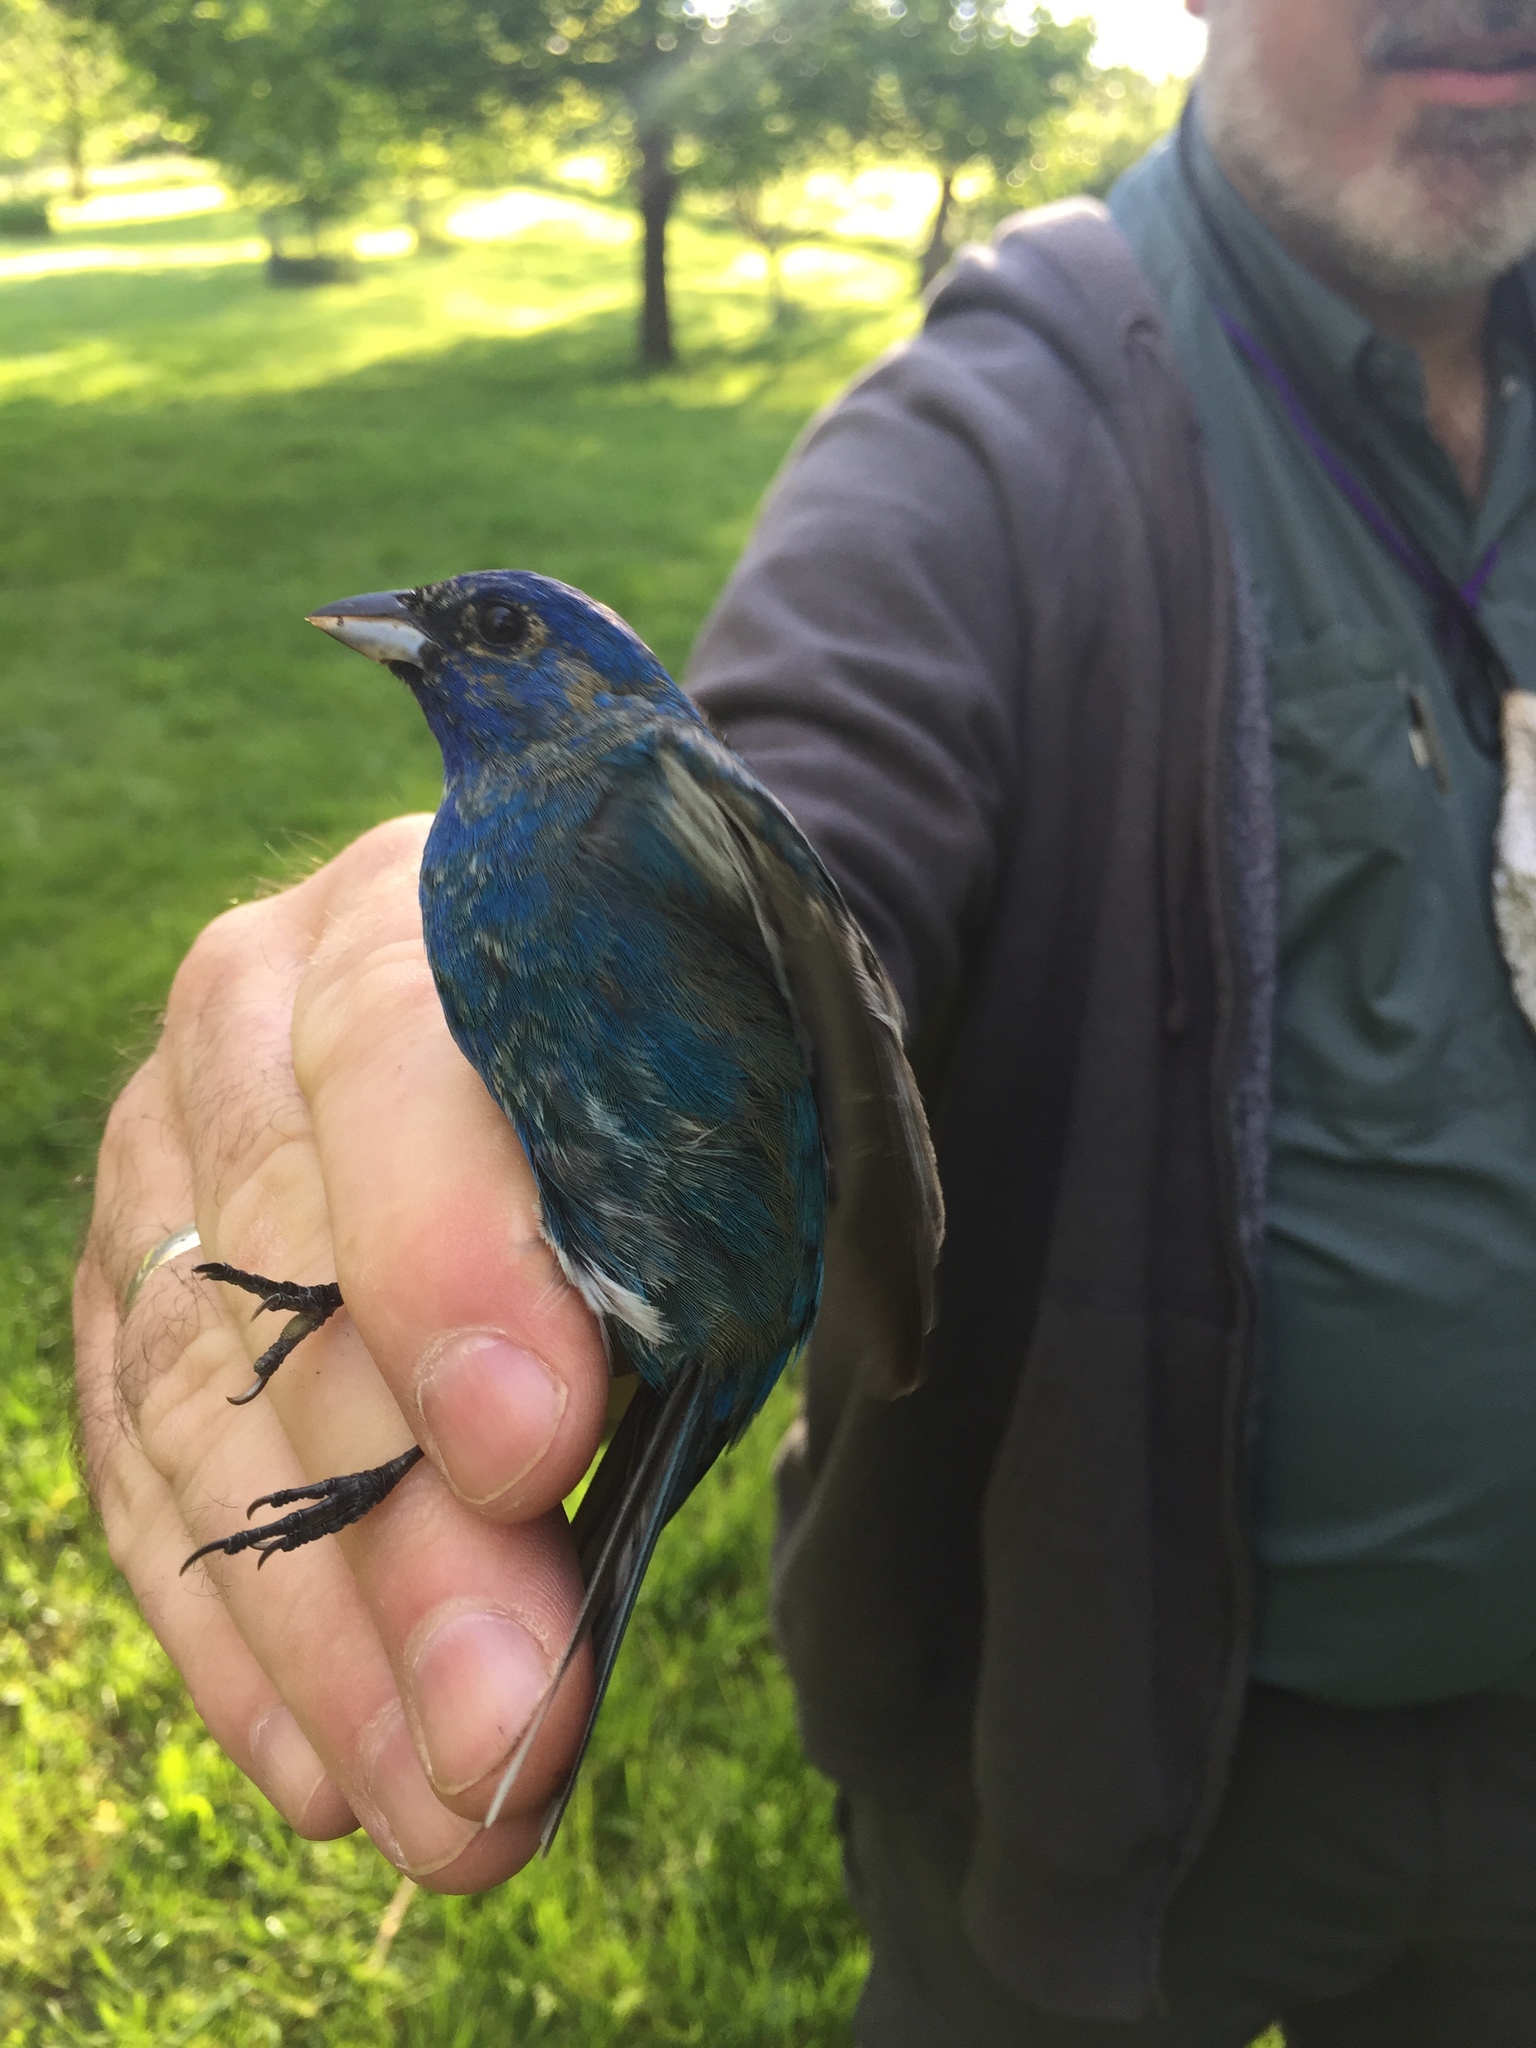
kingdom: Animalia
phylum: Chordata
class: Aves
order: Passeriformes
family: Cardinalidae
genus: Passerina
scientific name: Passerina cyanea
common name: Indigo bunting
